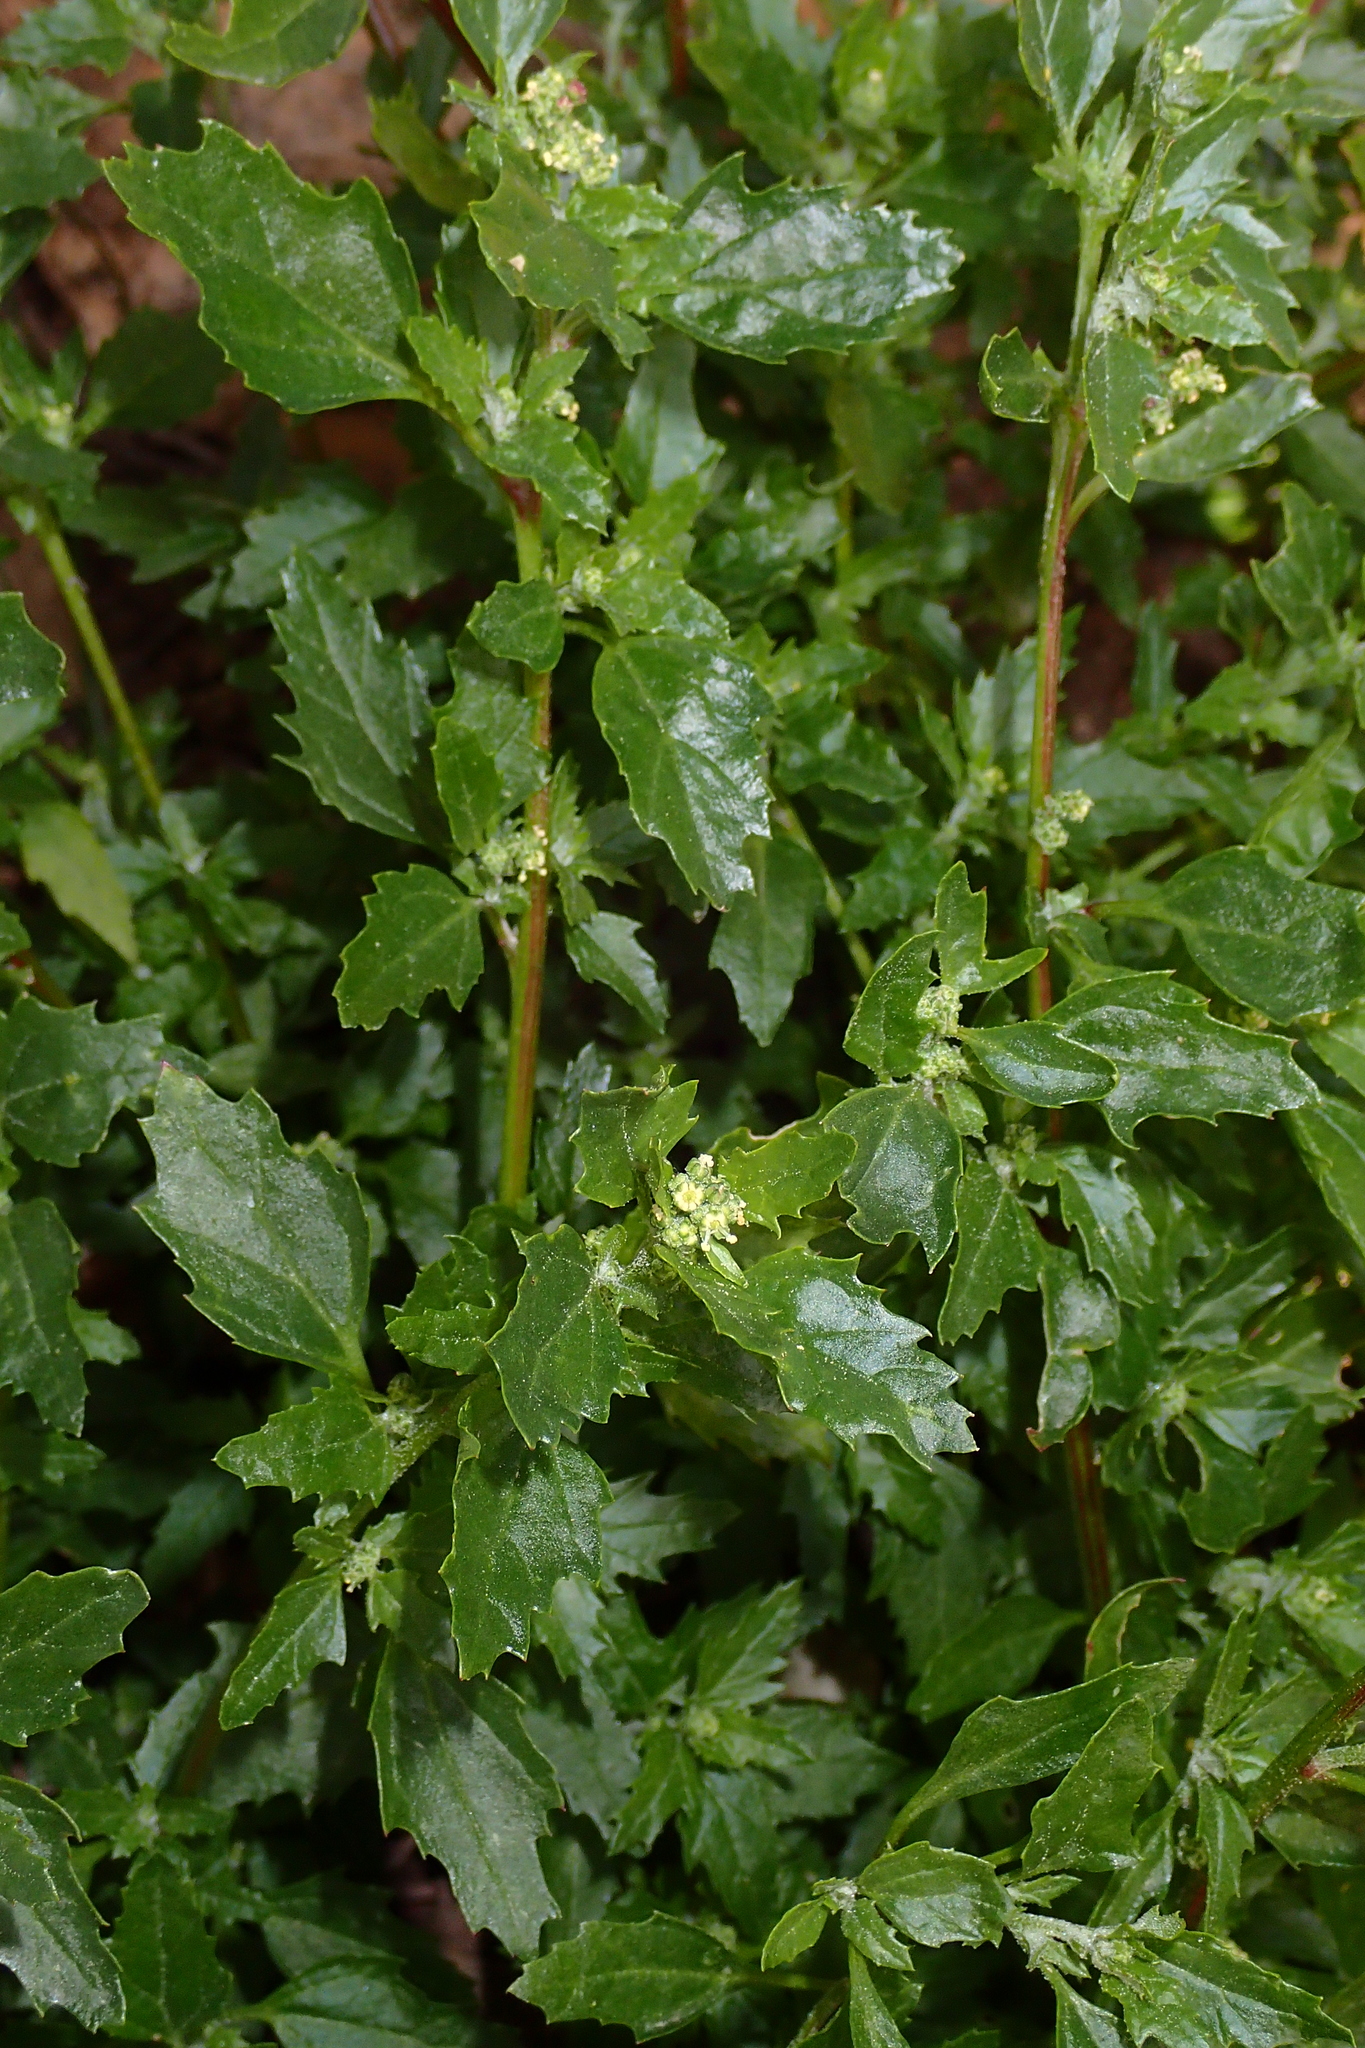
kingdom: Plantae
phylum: Tracheophyta
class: Magnoliopsida
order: Caryophyllales
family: Amaranthaceae
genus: Chenopodiastrum
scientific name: Chenopodiastrum murale
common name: Sowbane
